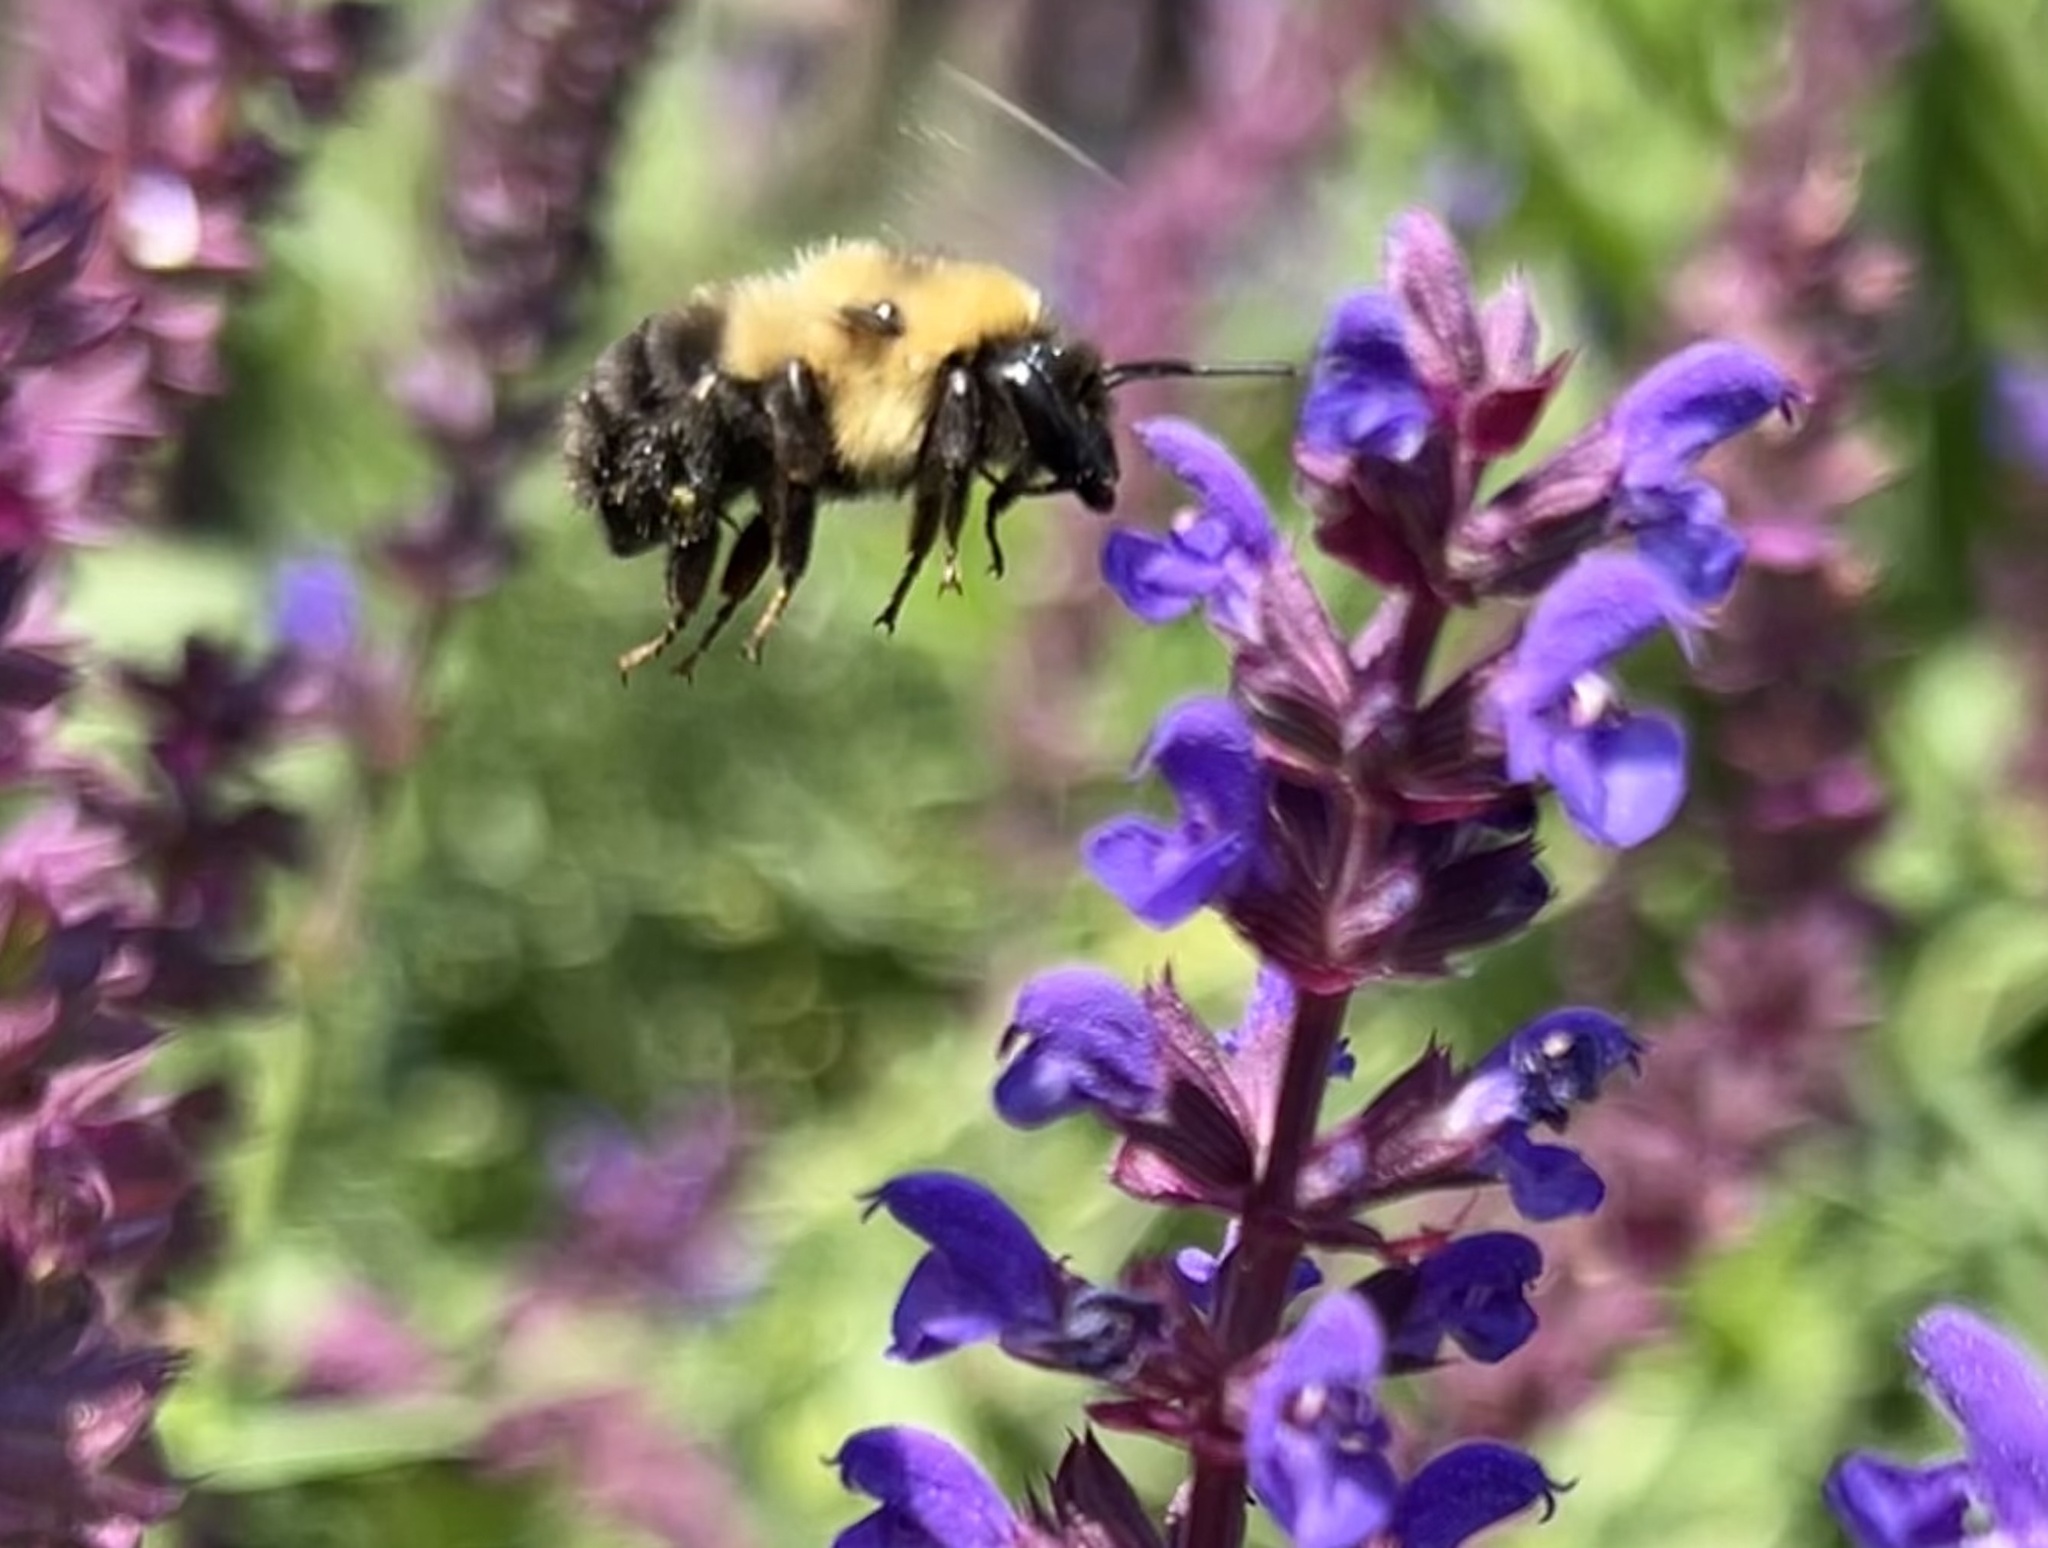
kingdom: Animalia
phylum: Arthropoda
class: Insecta
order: Hymenoptera
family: Apidae
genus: Bombus
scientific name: Bombus bimaculatus
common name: Two-spotted bumble bee
